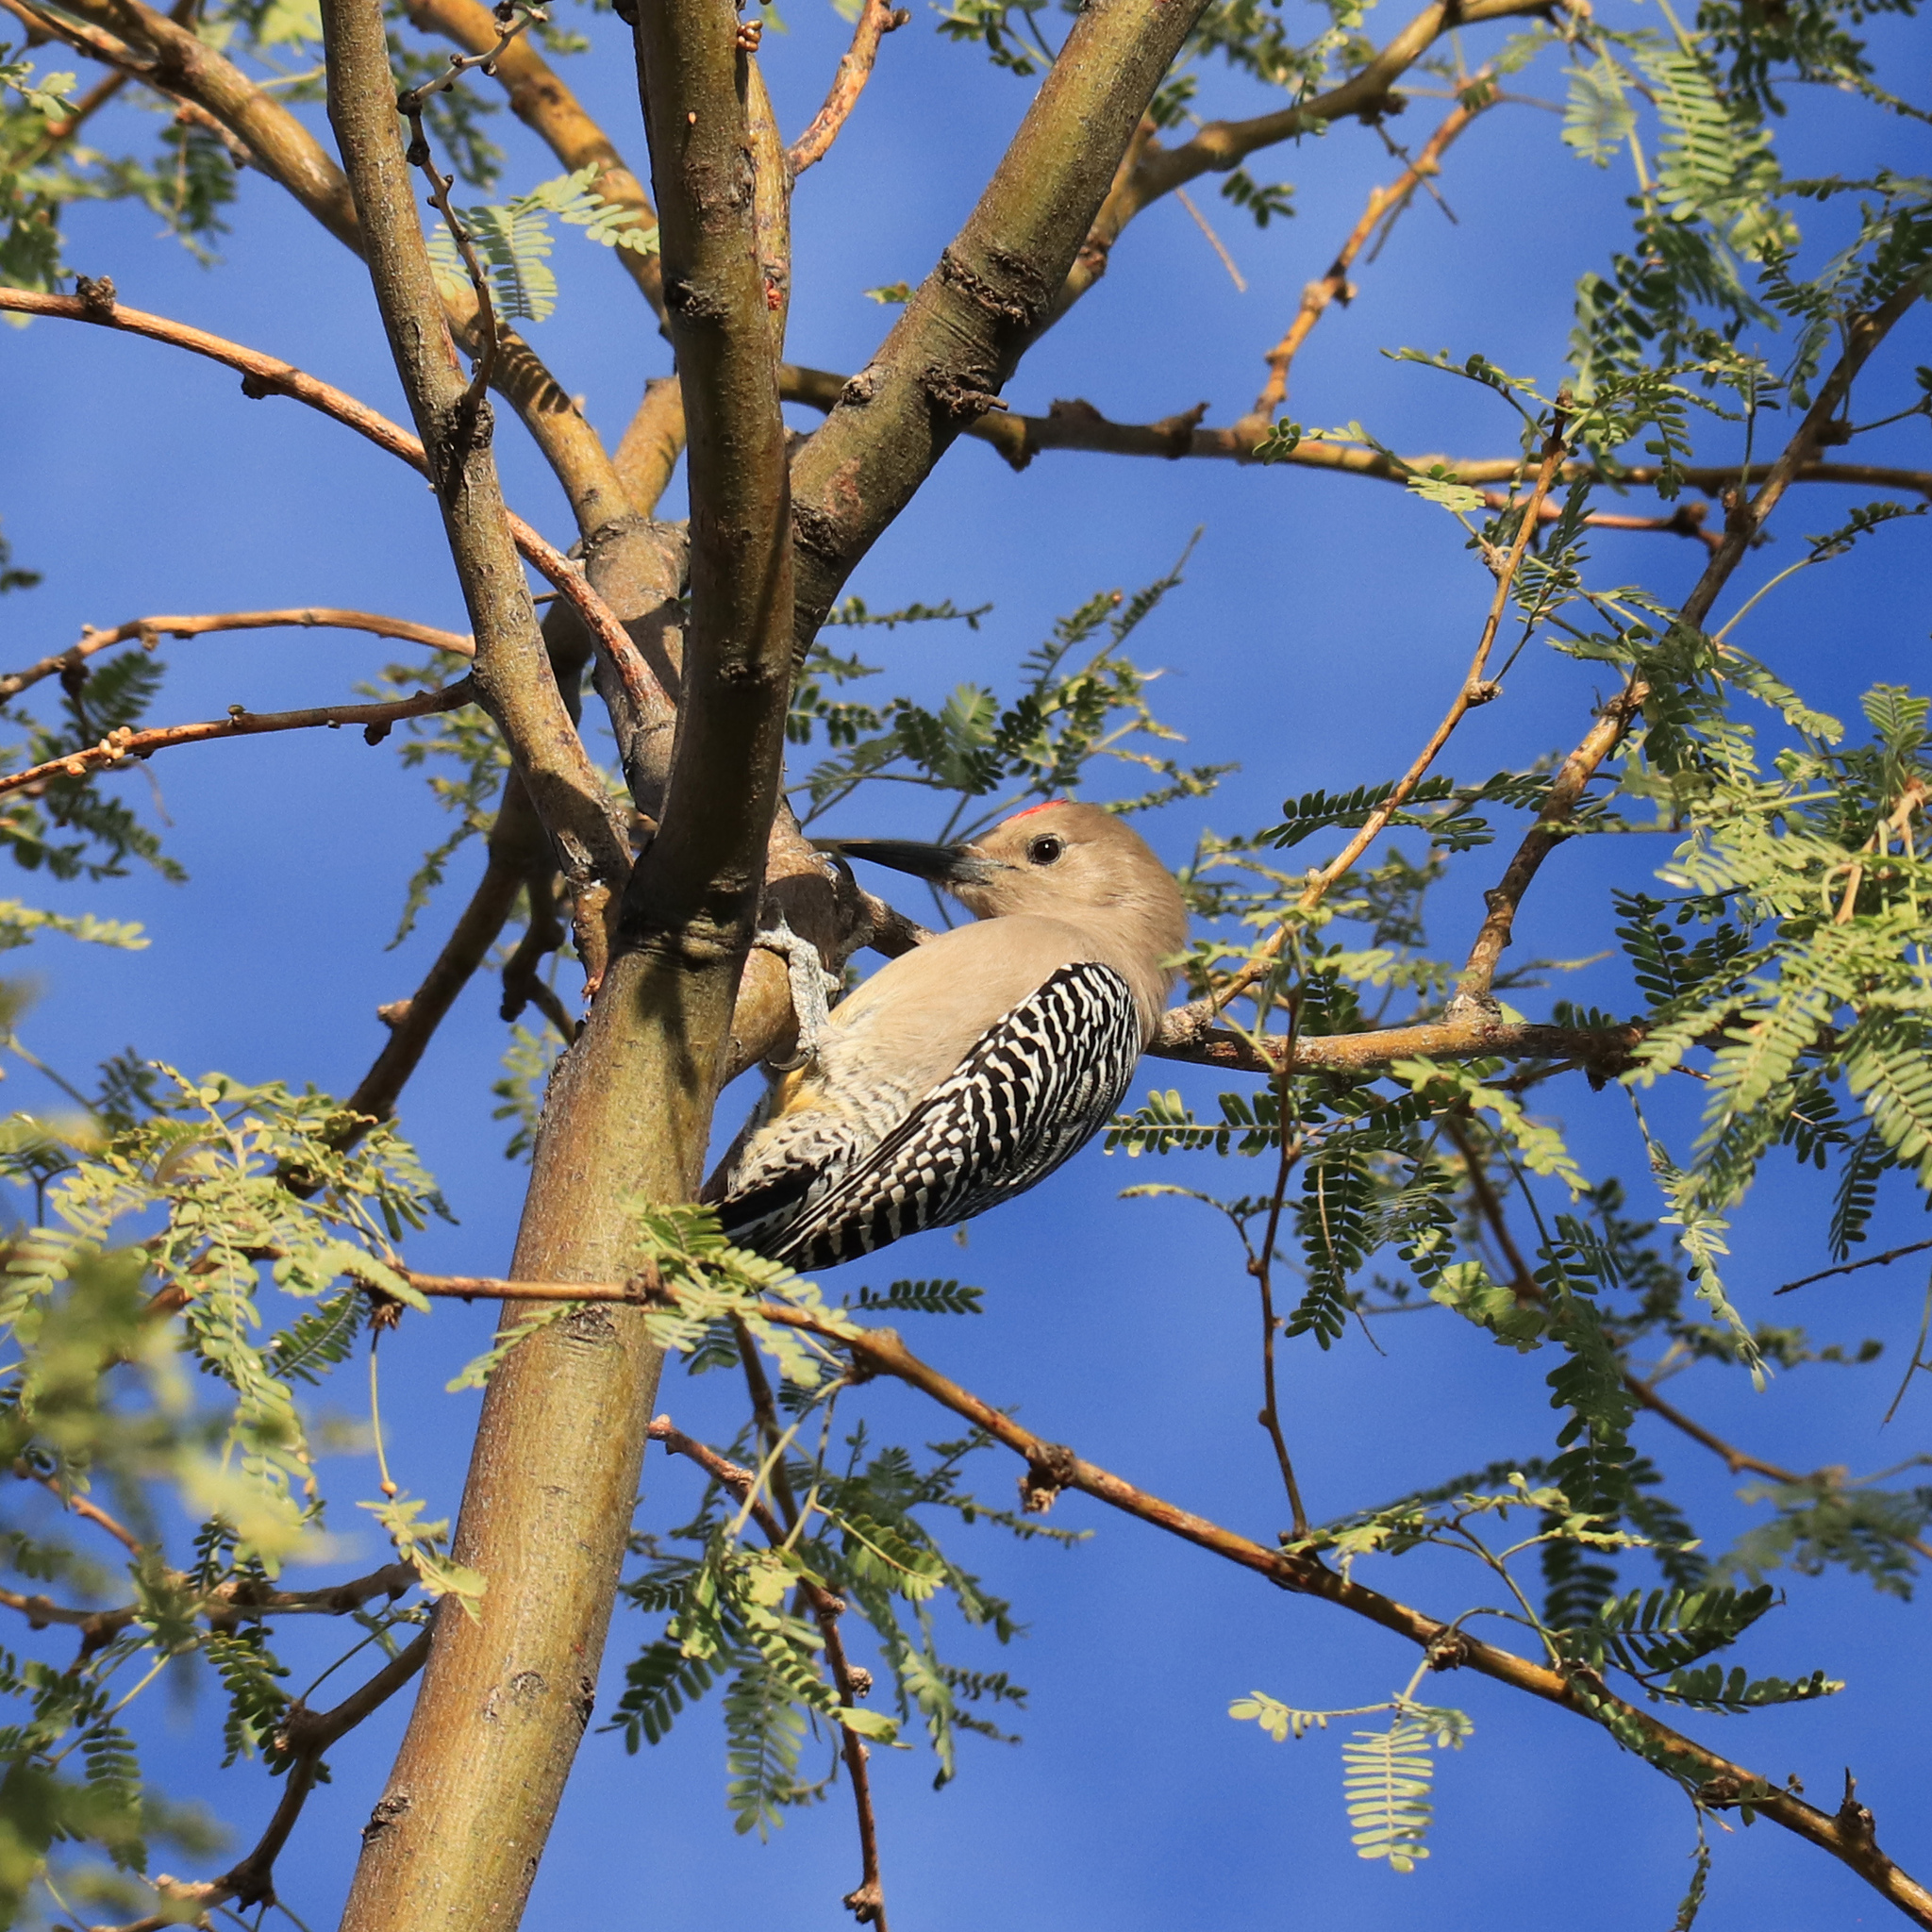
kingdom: Animalia
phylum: Chordata
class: Aves
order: Piciformes
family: Picidae
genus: Melanerpes
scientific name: Melanerpes uropygialis
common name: Gila woodpecker
